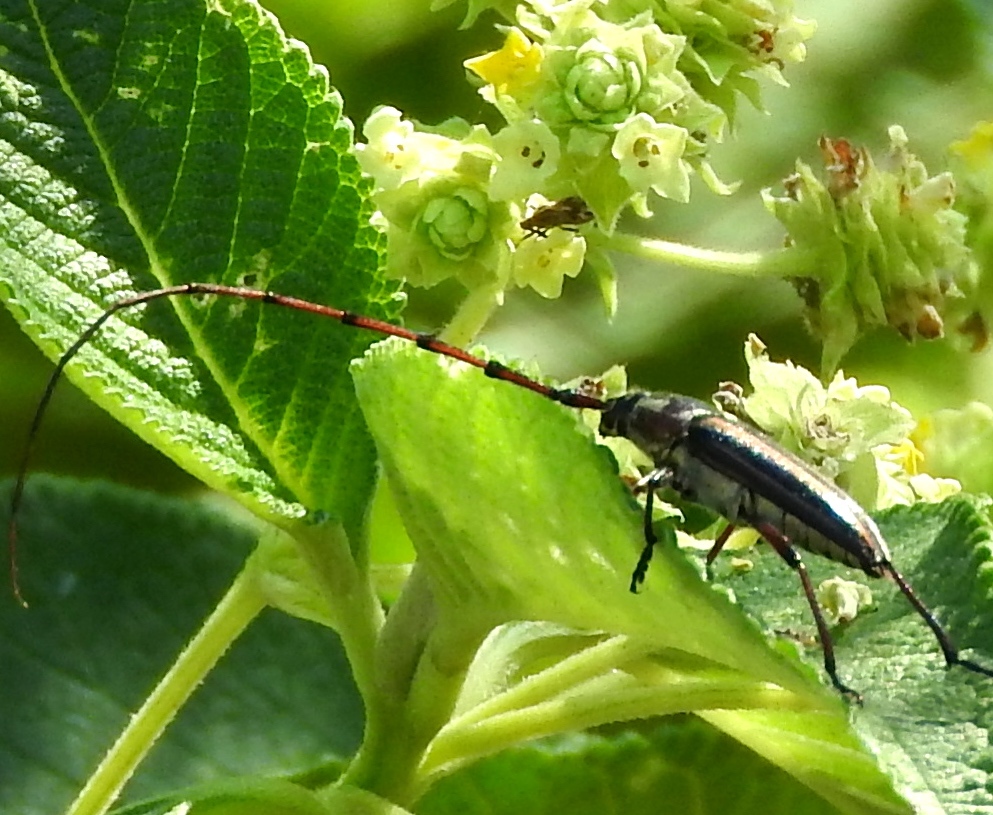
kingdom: Animalia
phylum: Arthropoda
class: Insecta
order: Coleoptera
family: Cerambycidae
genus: Sphaenothecus
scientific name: Sphaenothecus maccartyi
